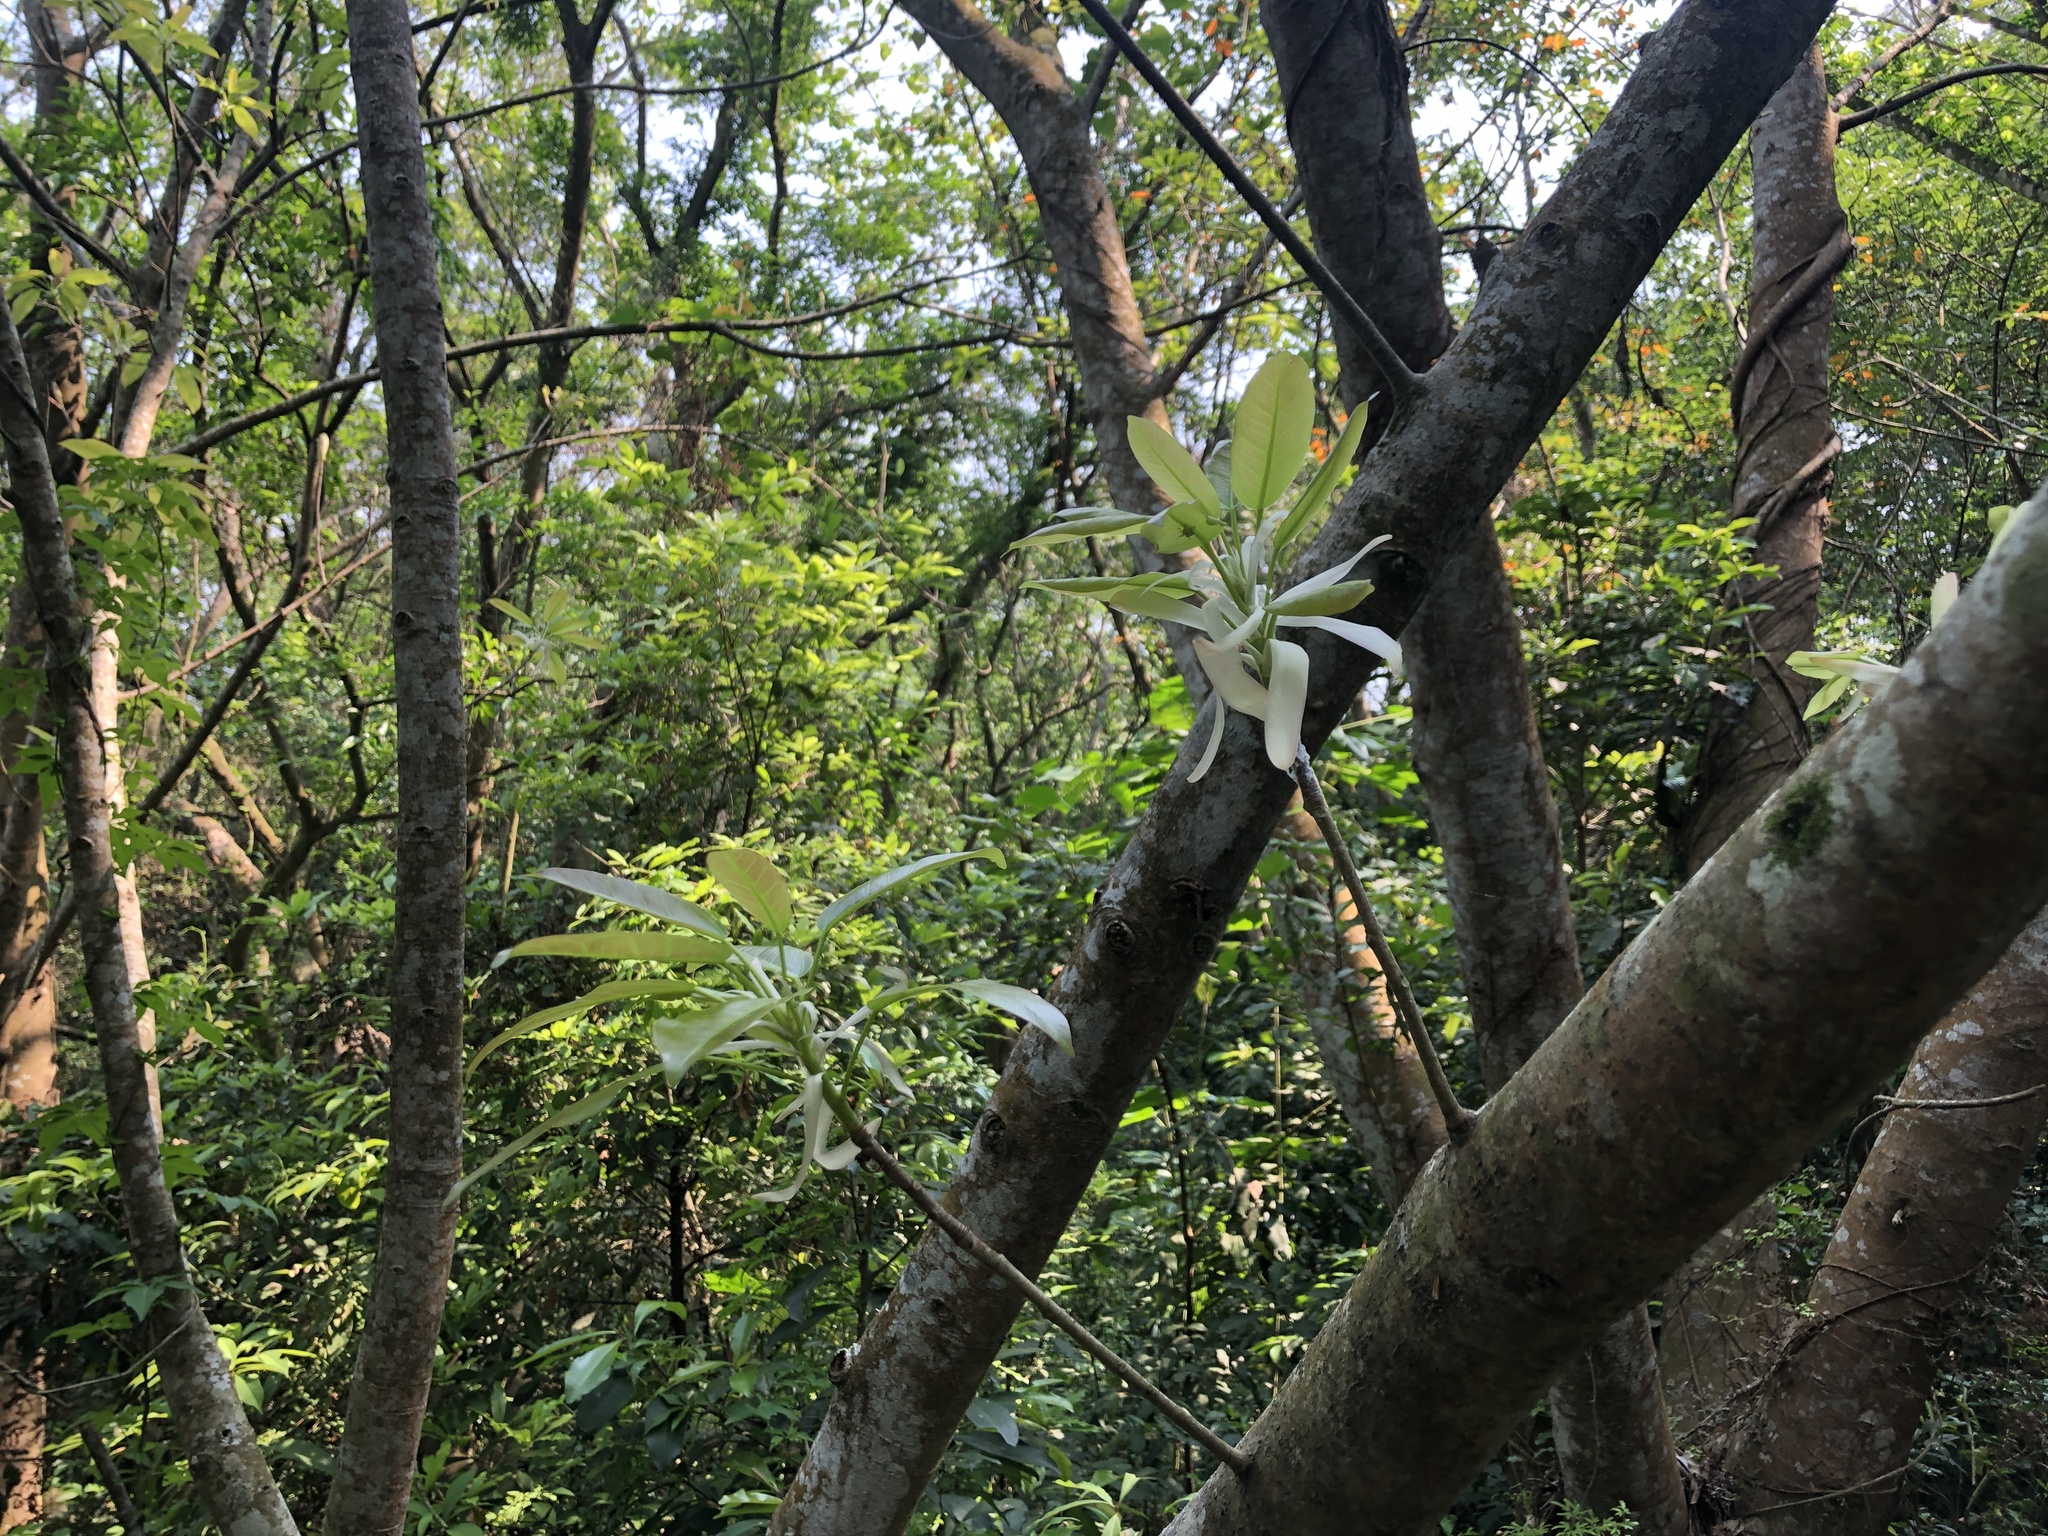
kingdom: Plantae
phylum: Tracheophyta
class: Magnoliopsida
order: Rosales
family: Moraceae
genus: Ficus
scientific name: Ficus subpisocarpa
